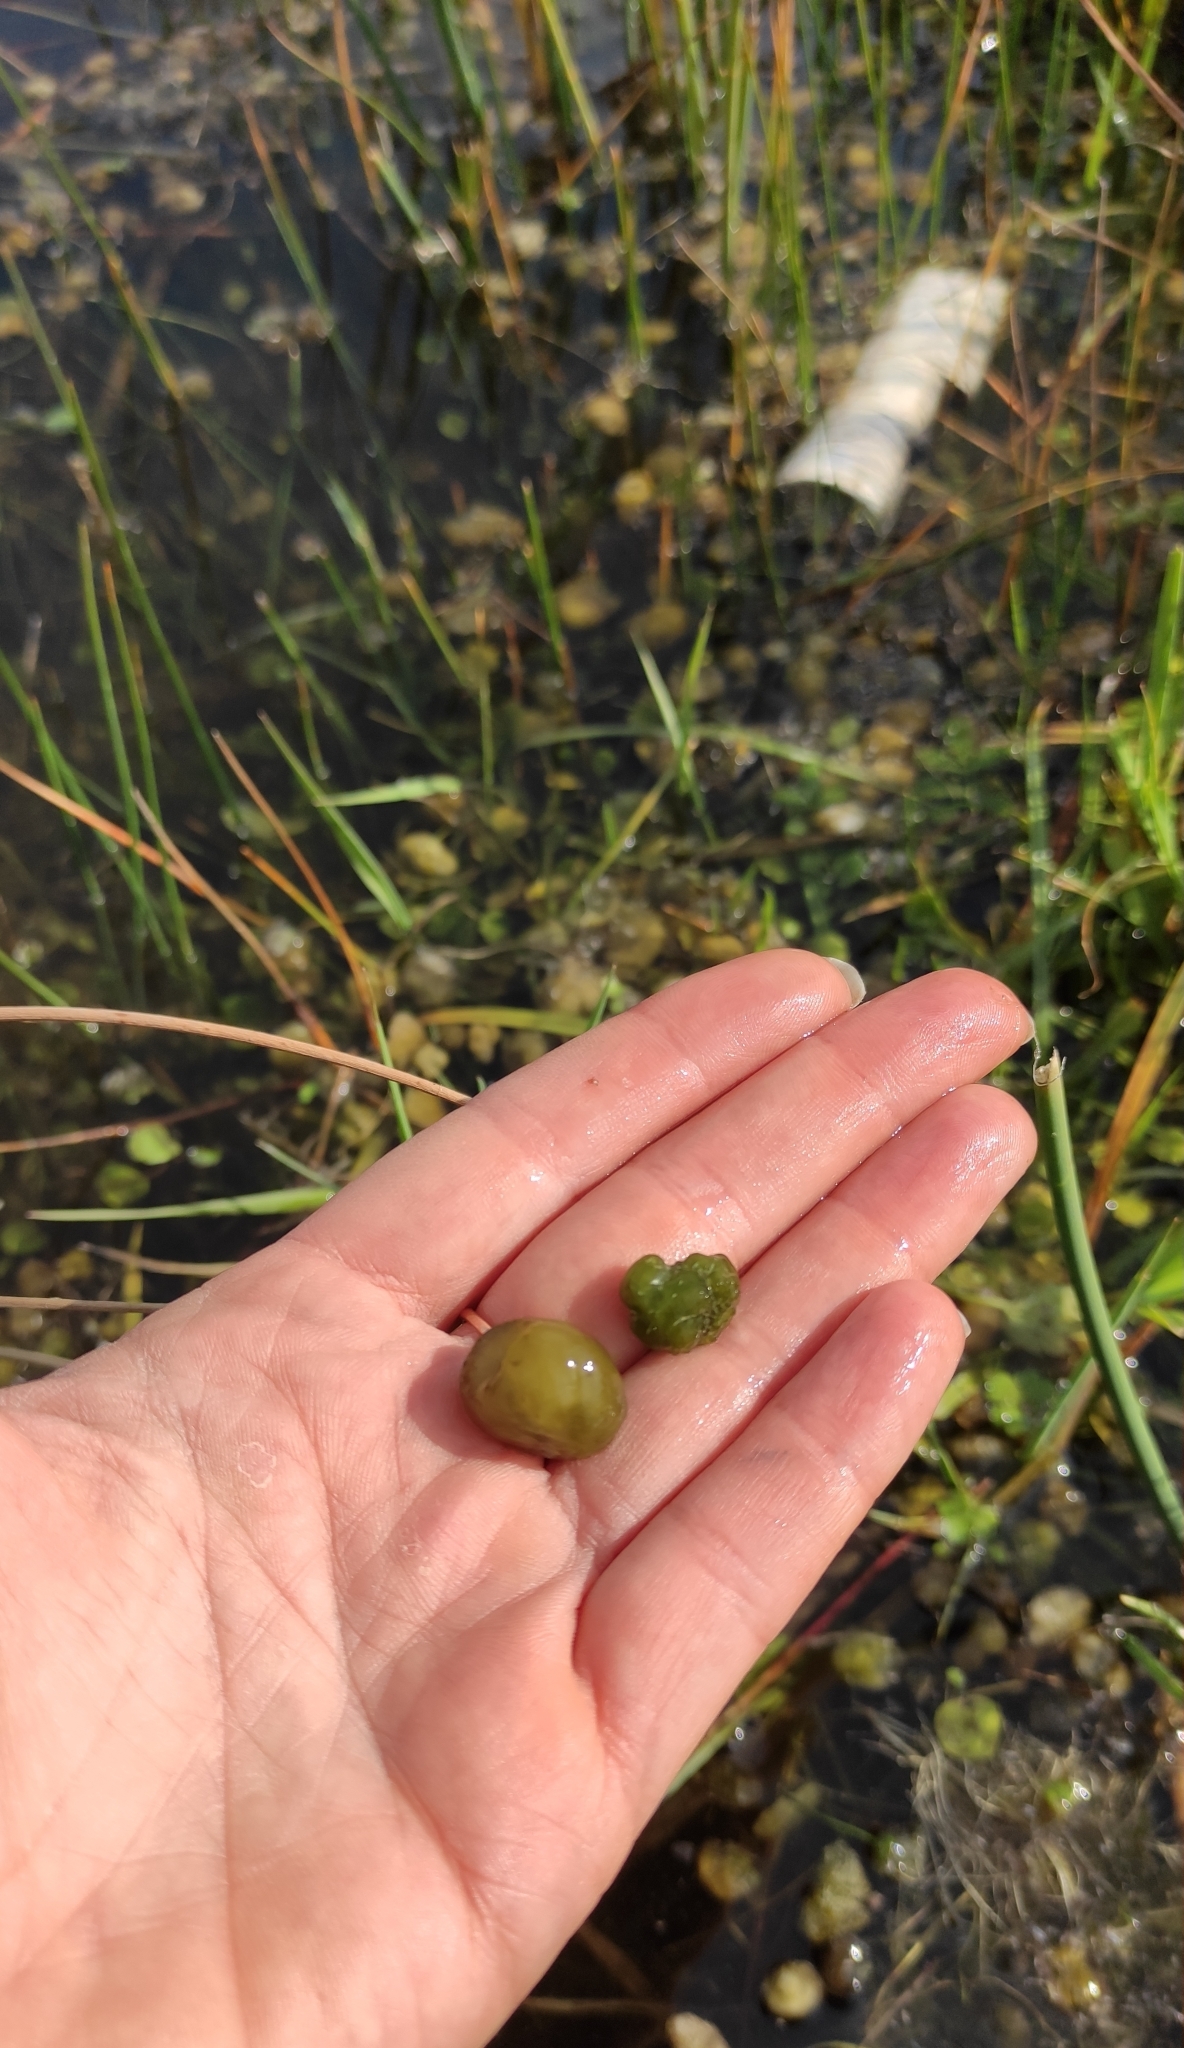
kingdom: Bacteria
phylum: Cyanobacteria
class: Cyanobacteriia
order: Cyanobacteriales
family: Microcystaceae
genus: Aphanothece
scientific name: Aphanothece stagnina
